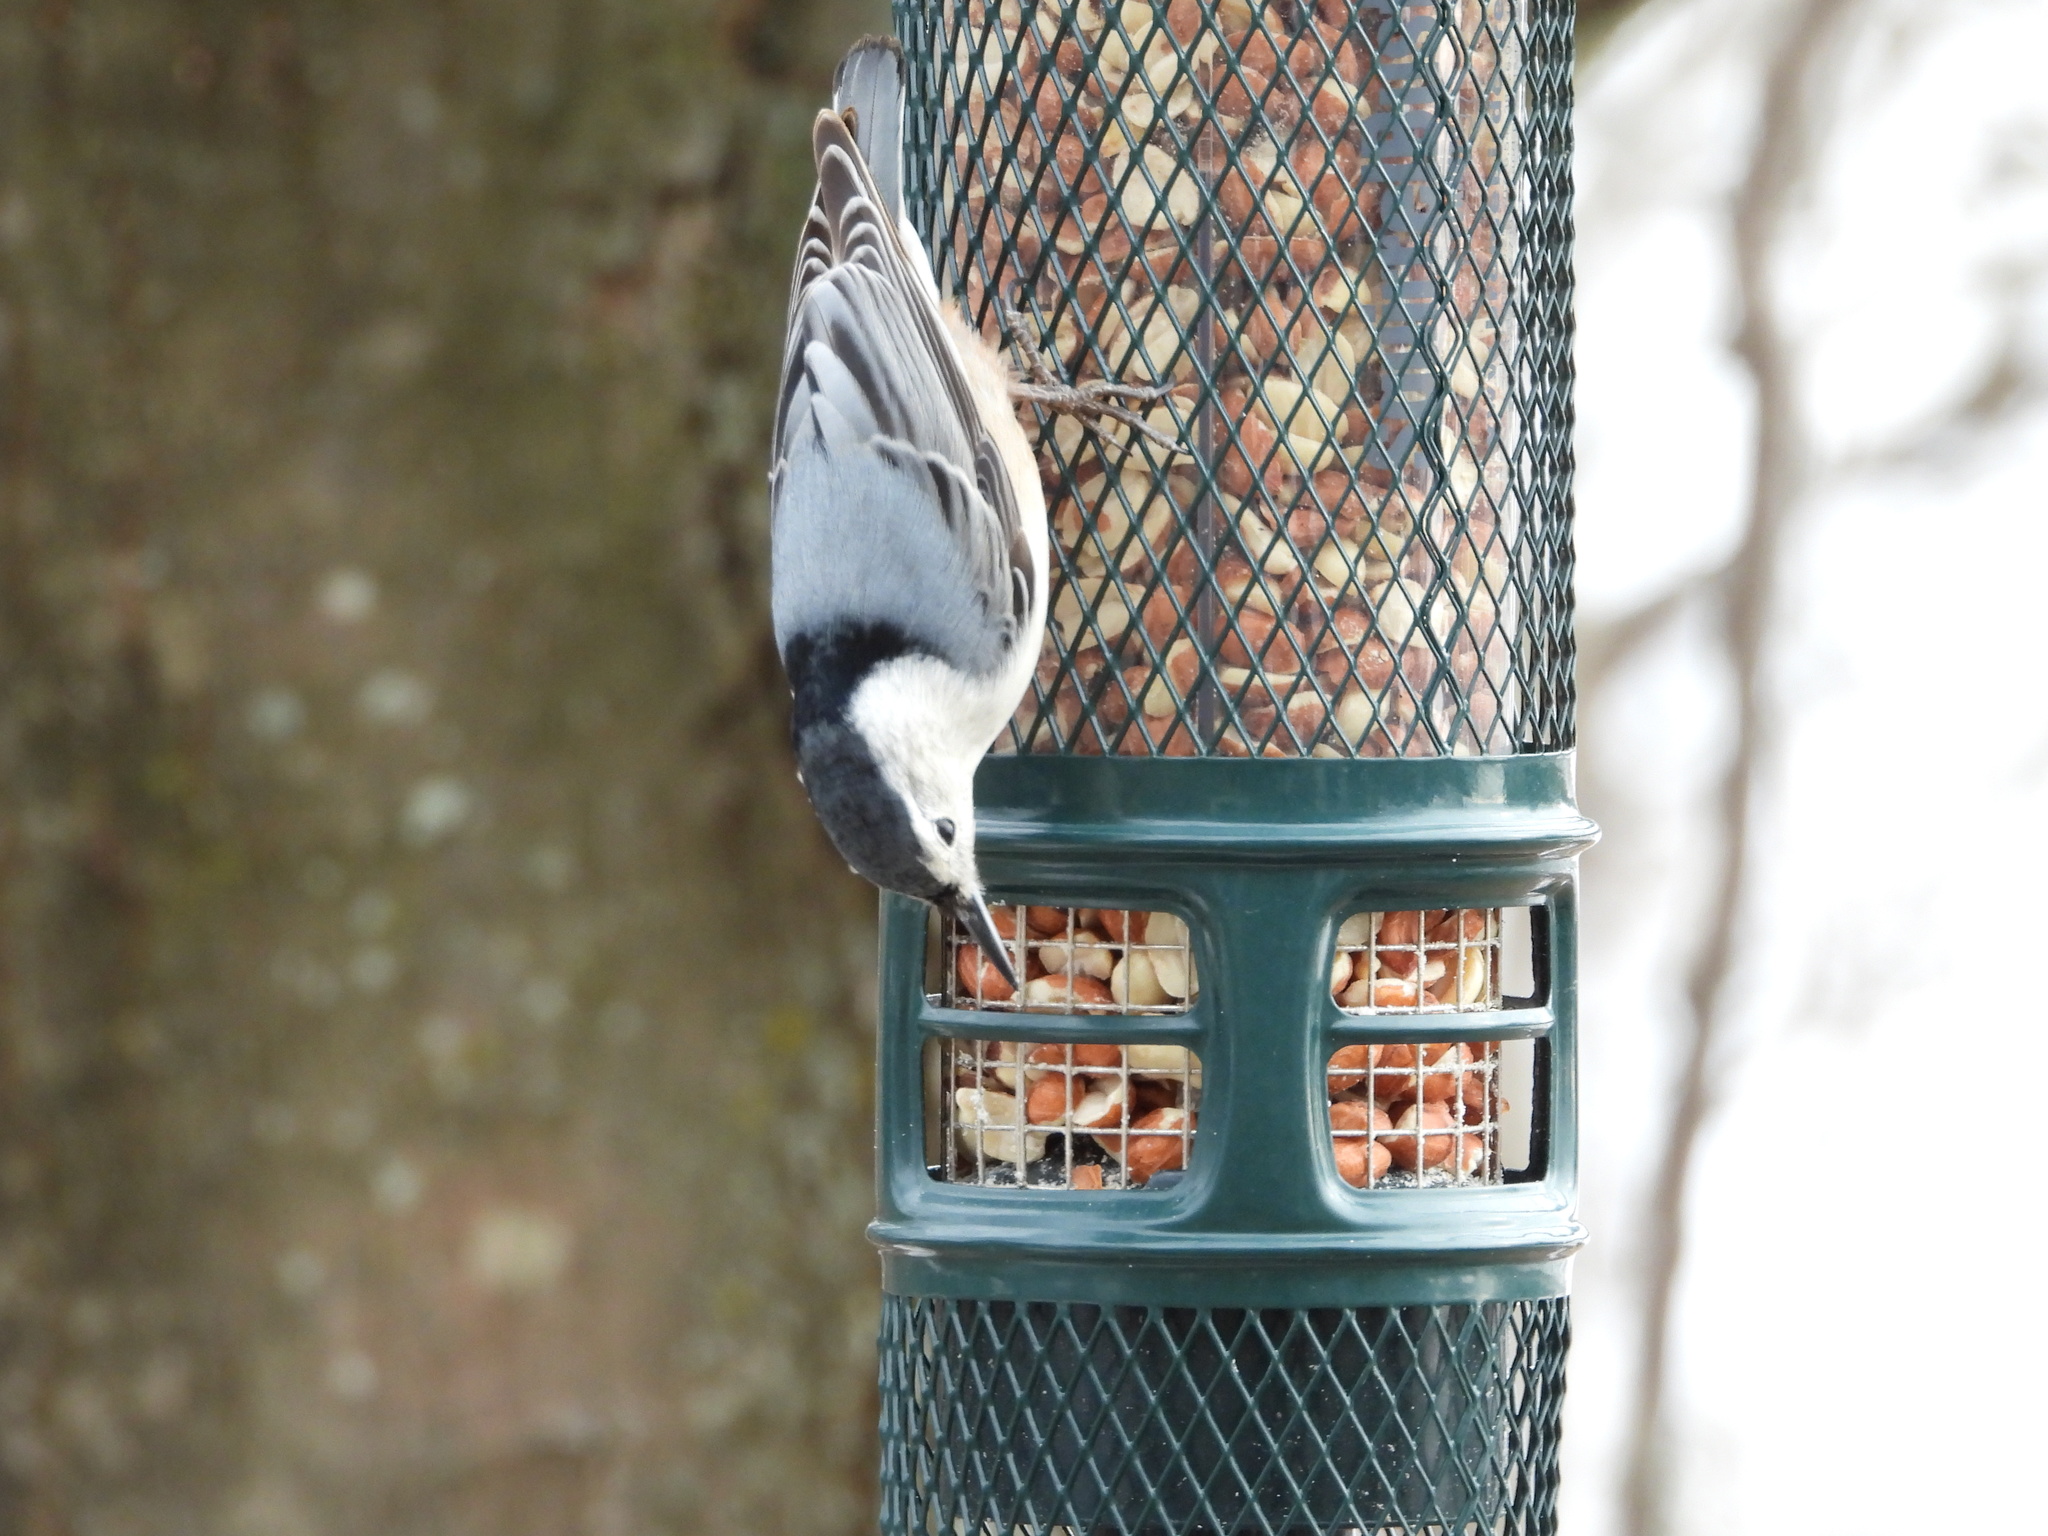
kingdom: Animalia
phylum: Chordata
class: Aves
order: Passeriformes
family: Sittidae
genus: Sitta
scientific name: Sitta carolinensis
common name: White-breasted nuthatch
